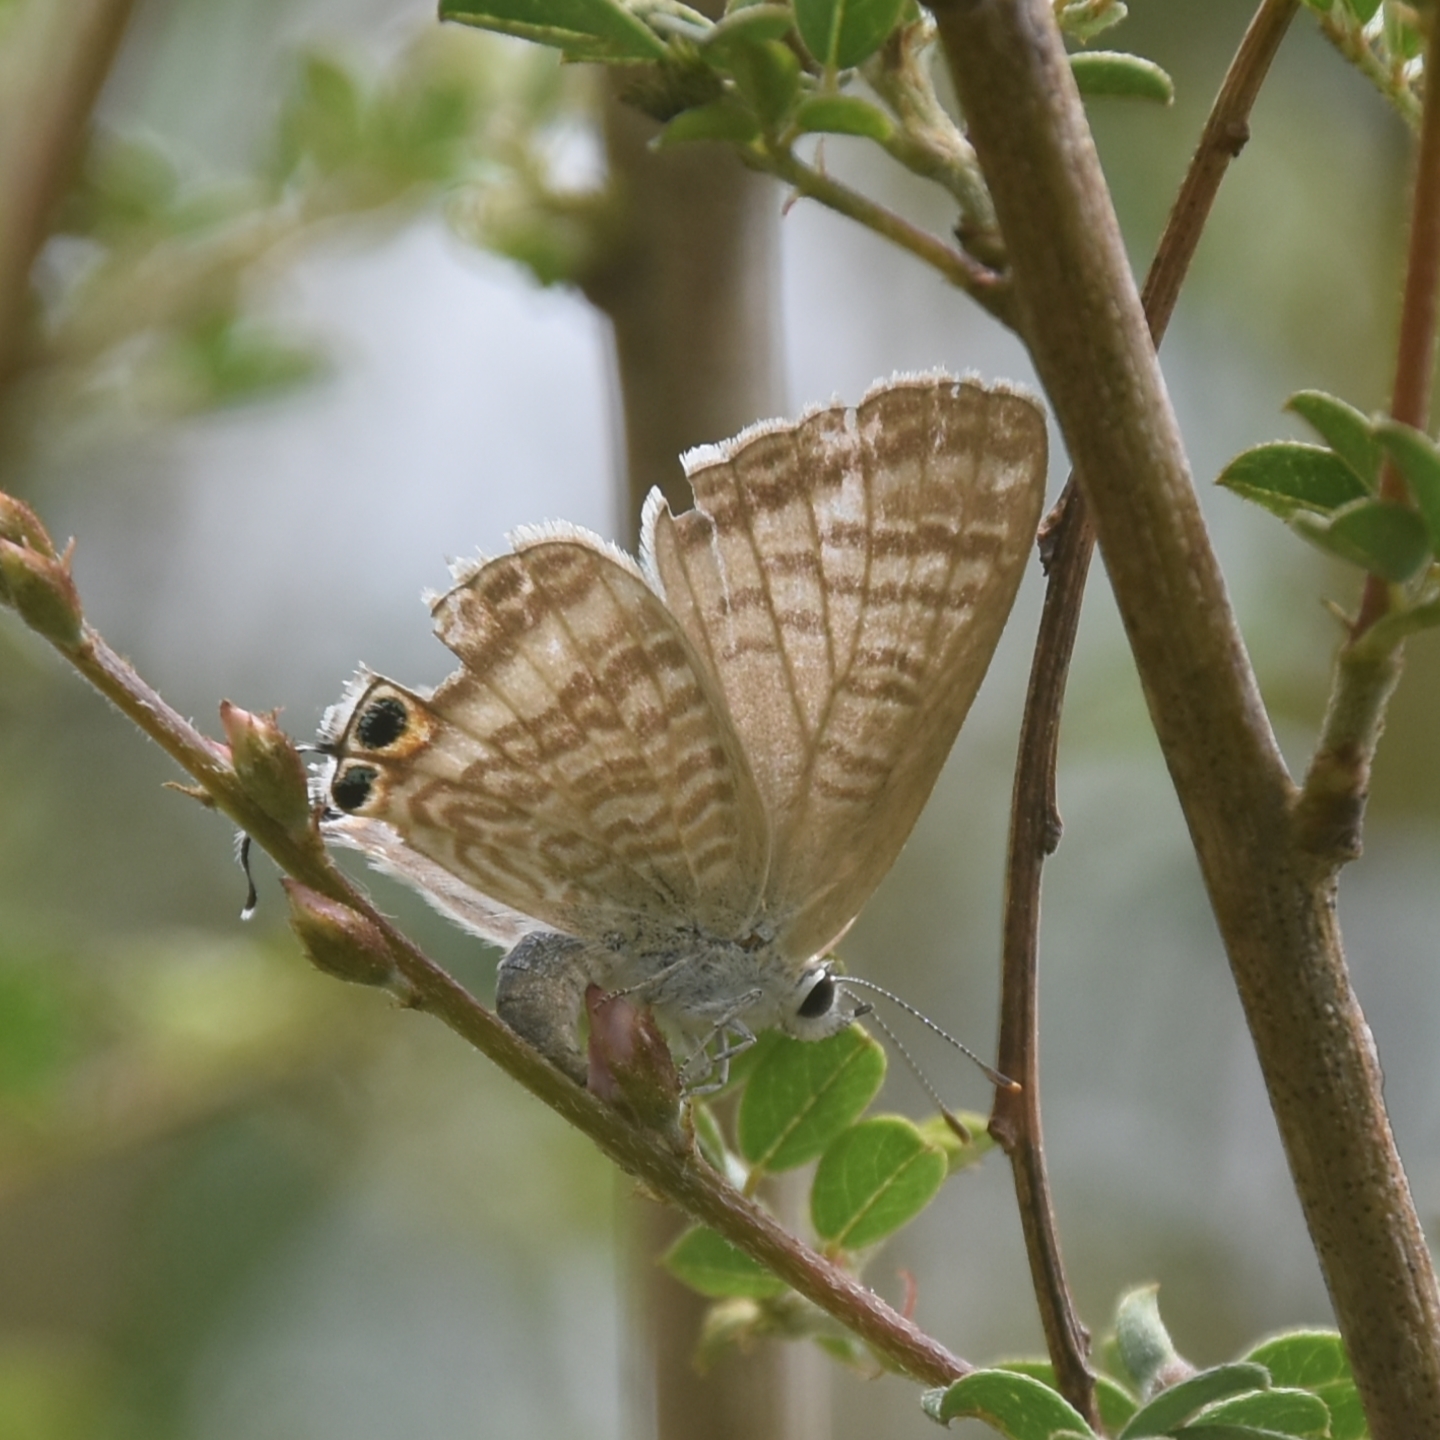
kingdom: Animalia
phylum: Arthropoda
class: Insecta
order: Lepidoptera
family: Lycaenidae
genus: Lampides
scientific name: Lampides boeticus
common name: Long-tailed blue
